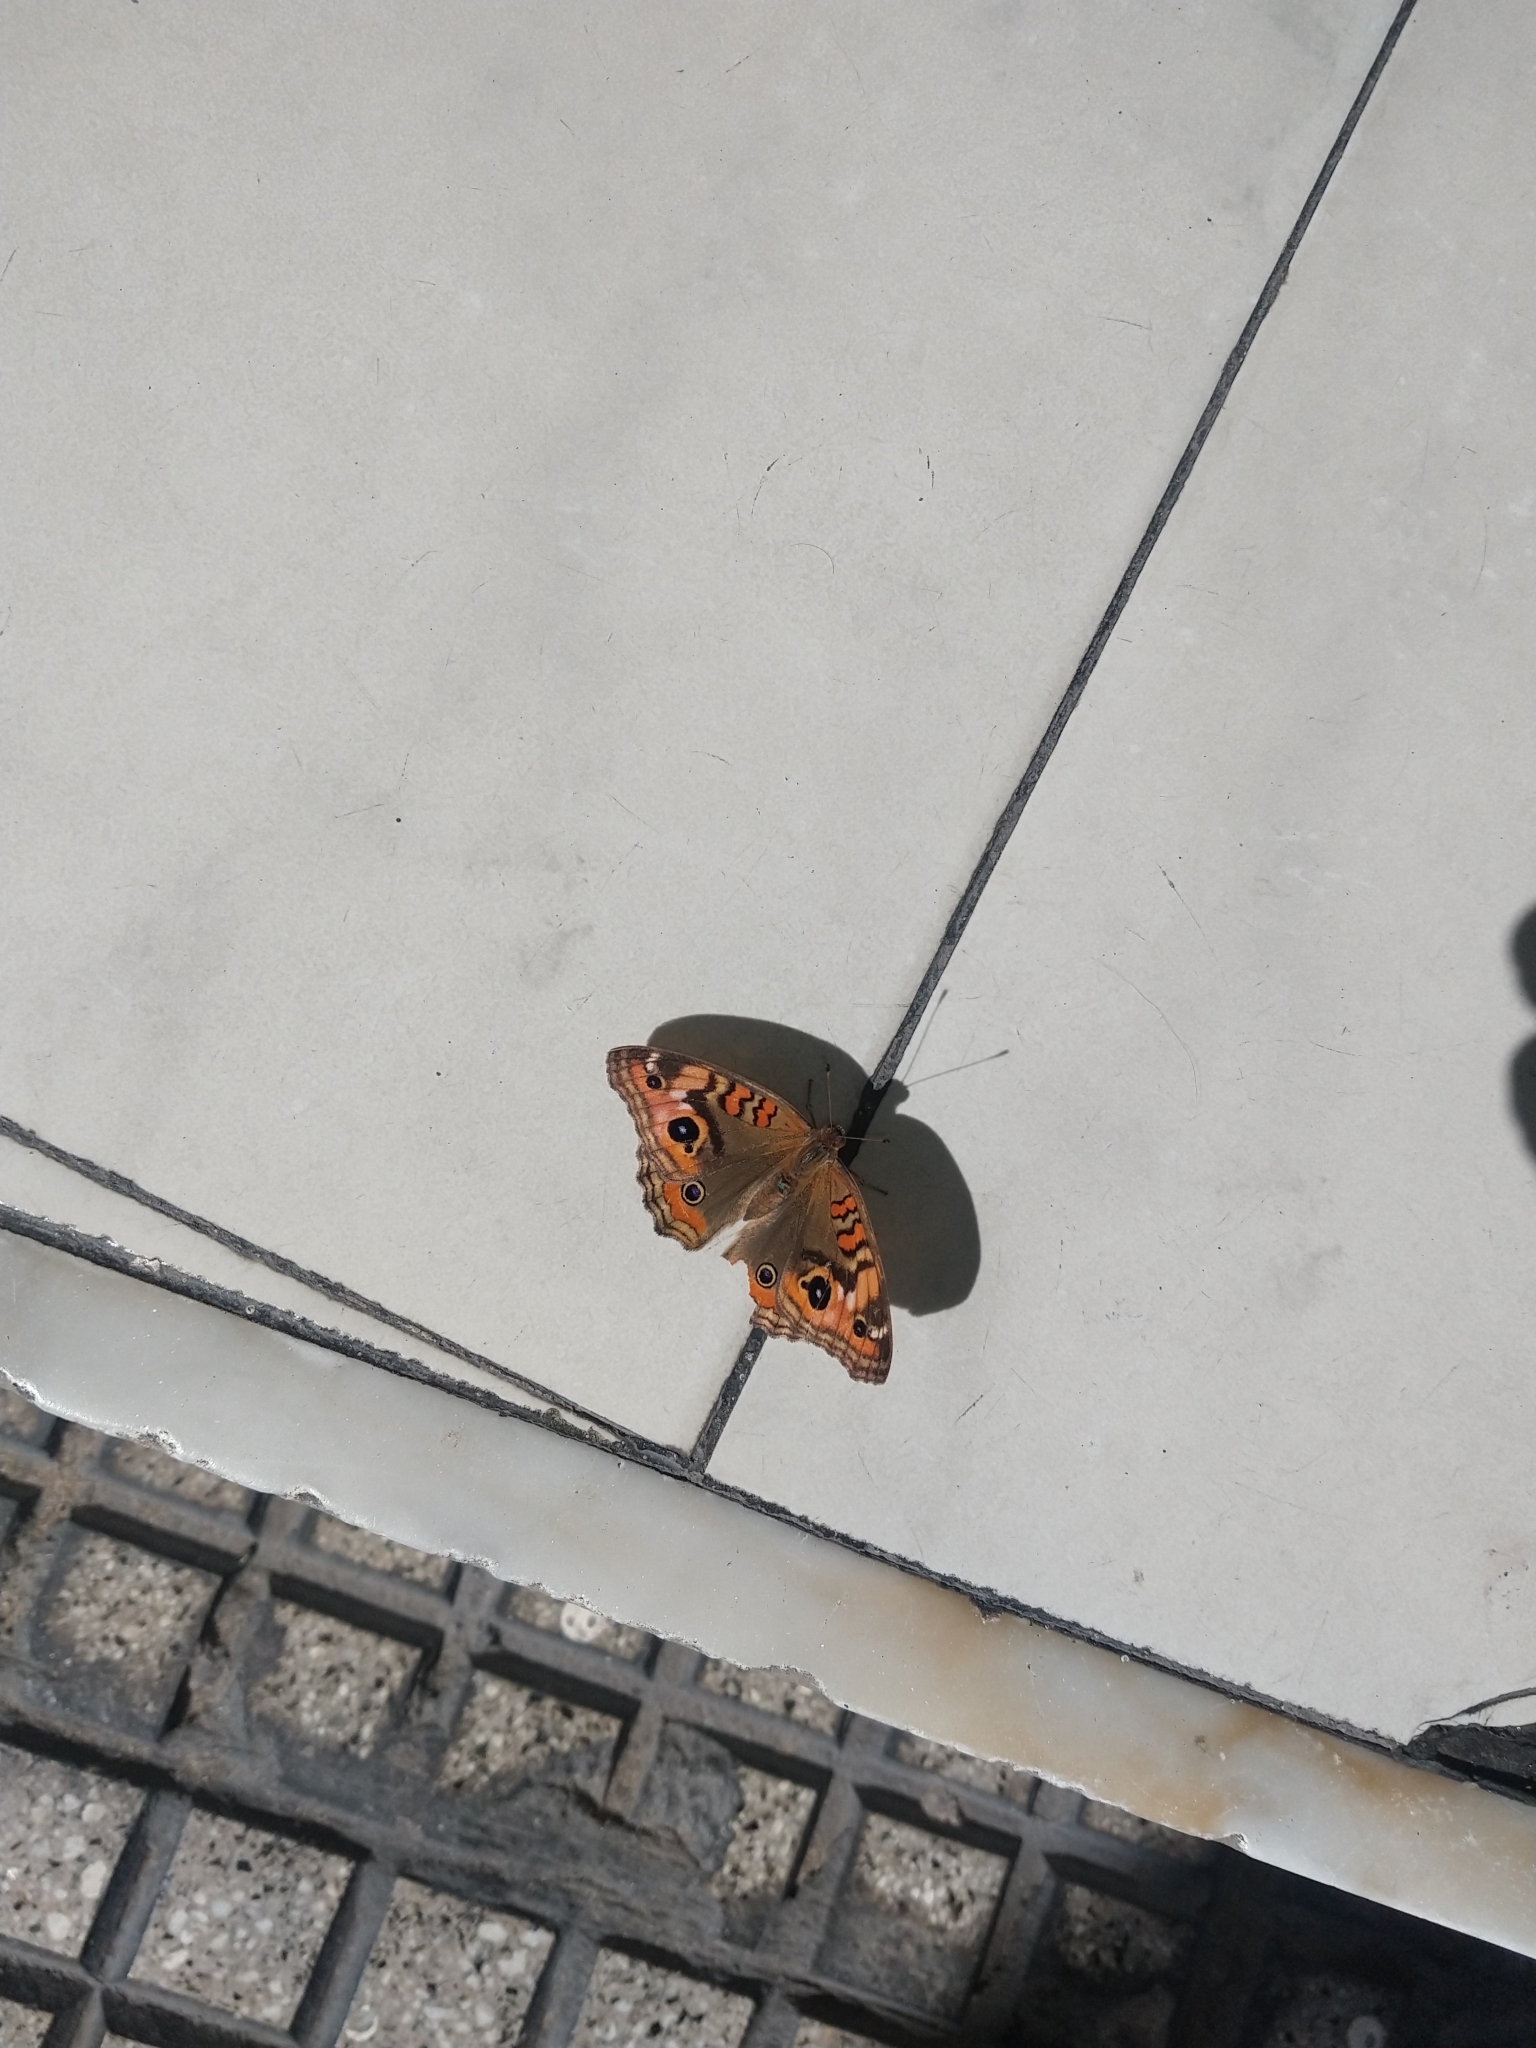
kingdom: Animalia
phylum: Arthropoda
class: Insecta
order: Lepidoptera
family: Nymphalidae
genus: Junonia
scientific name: Junonia lavinia
